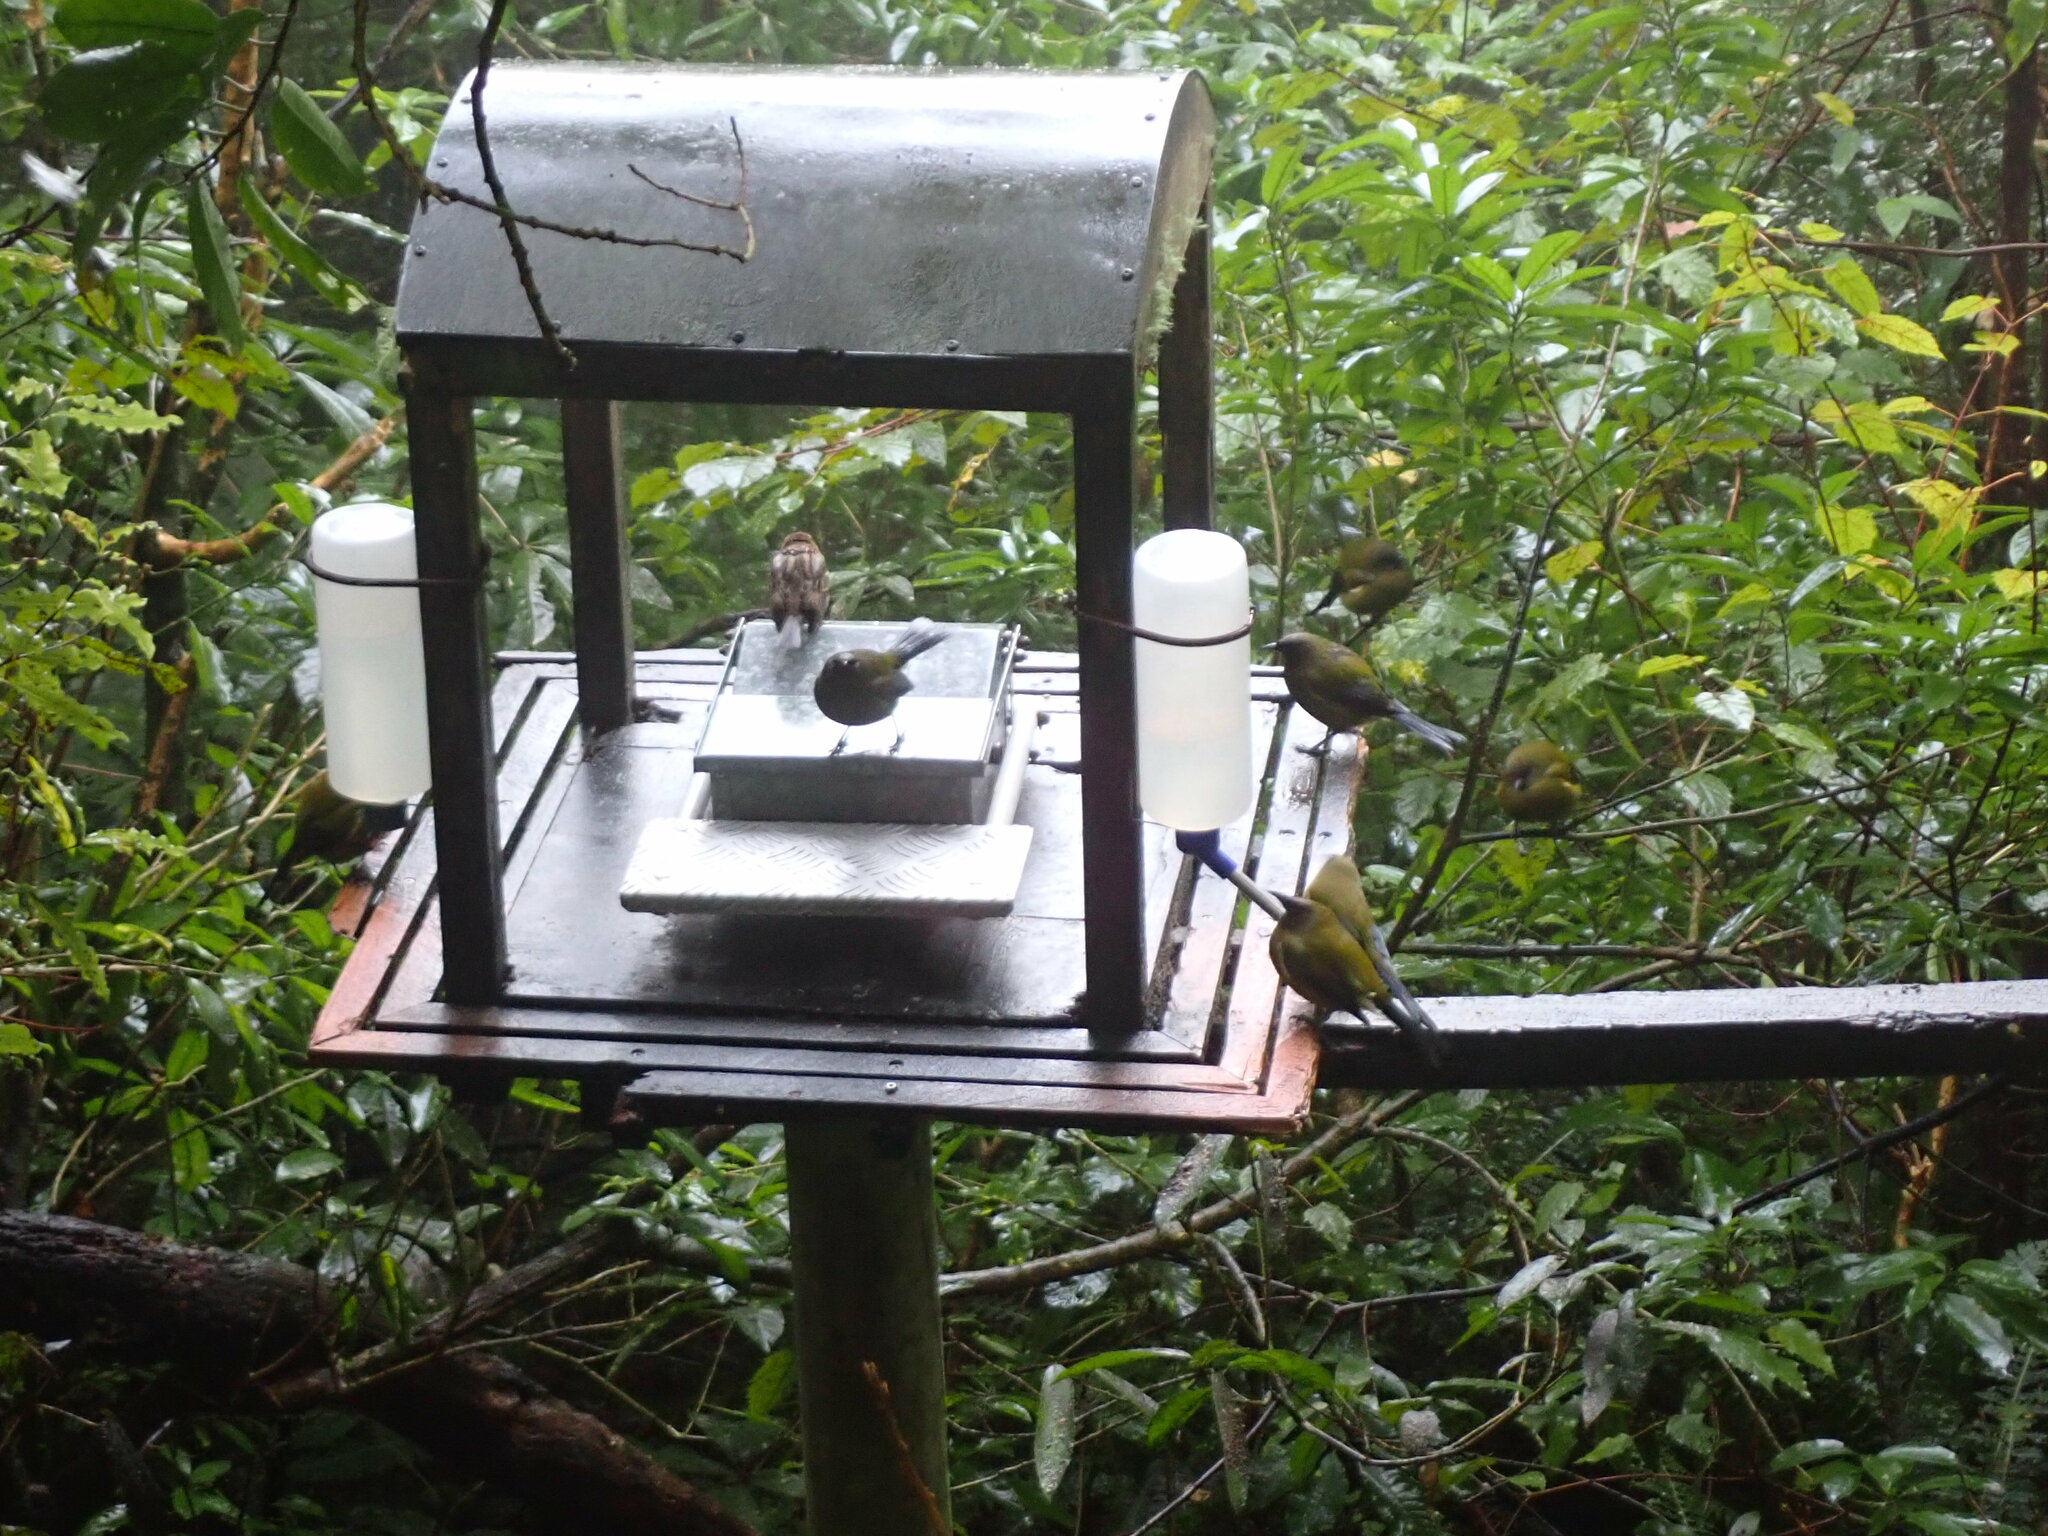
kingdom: Animalia
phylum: Chordata
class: Aves
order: Passeriformes
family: Meliphagidae
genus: Anthornis
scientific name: Anthornis melanura
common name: New zealand bellbird
